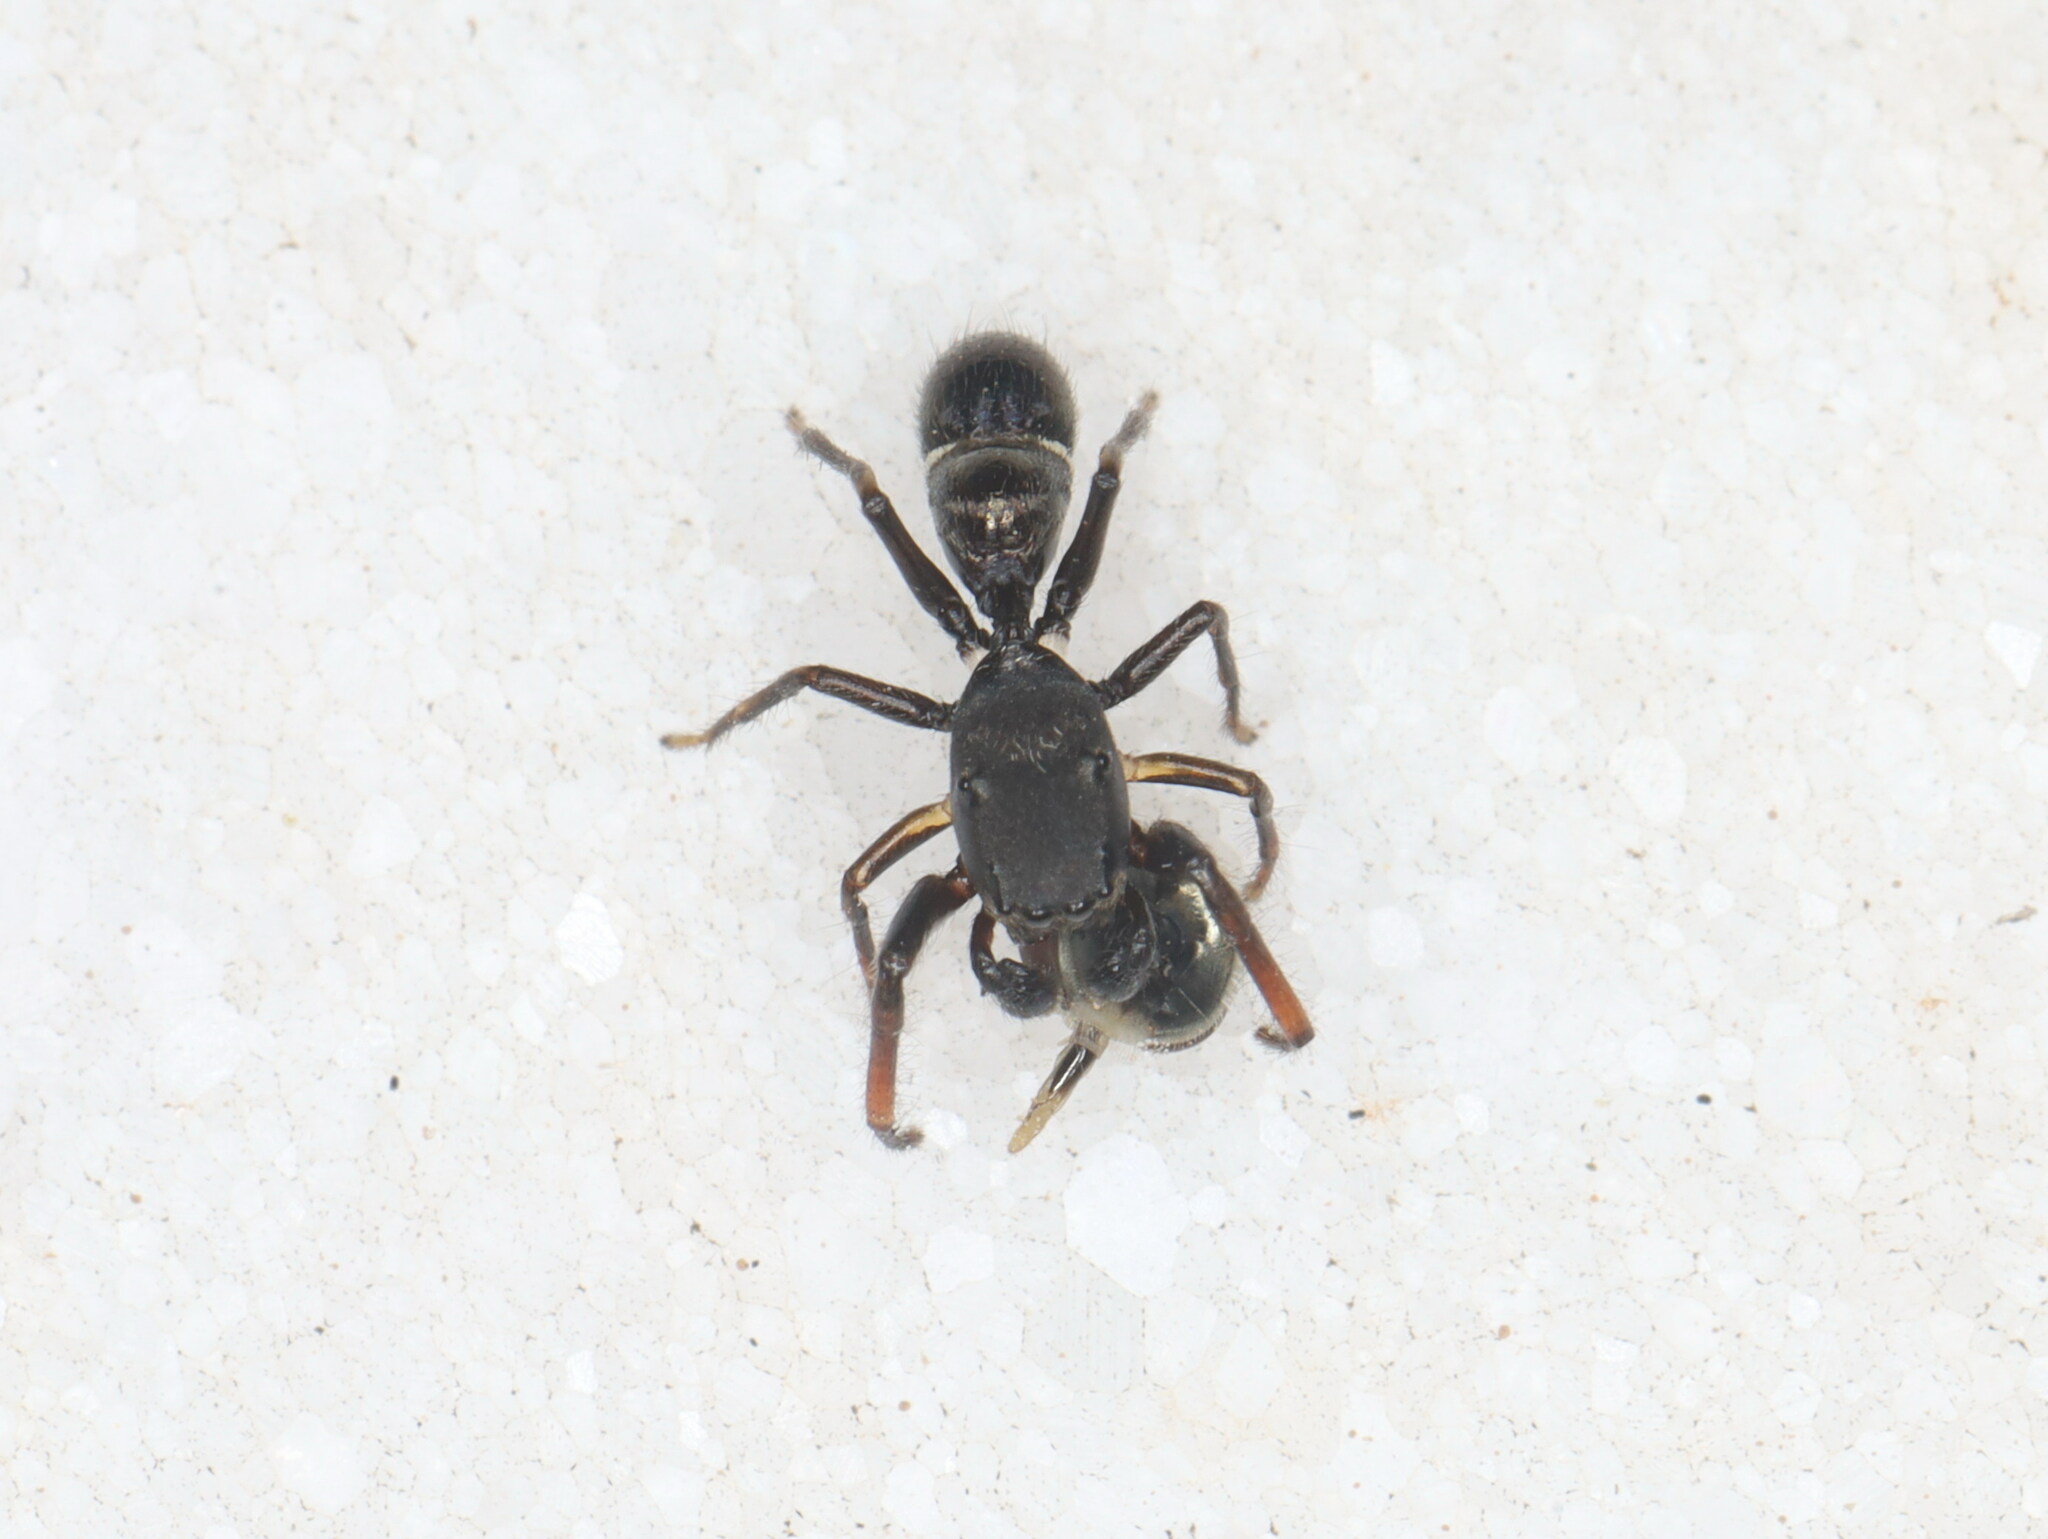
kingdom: Animalia
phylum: Arthropoda
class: Arachnida
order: Araneae
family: Salticidae
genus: Leptorchestes
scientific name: Leptorchestes
